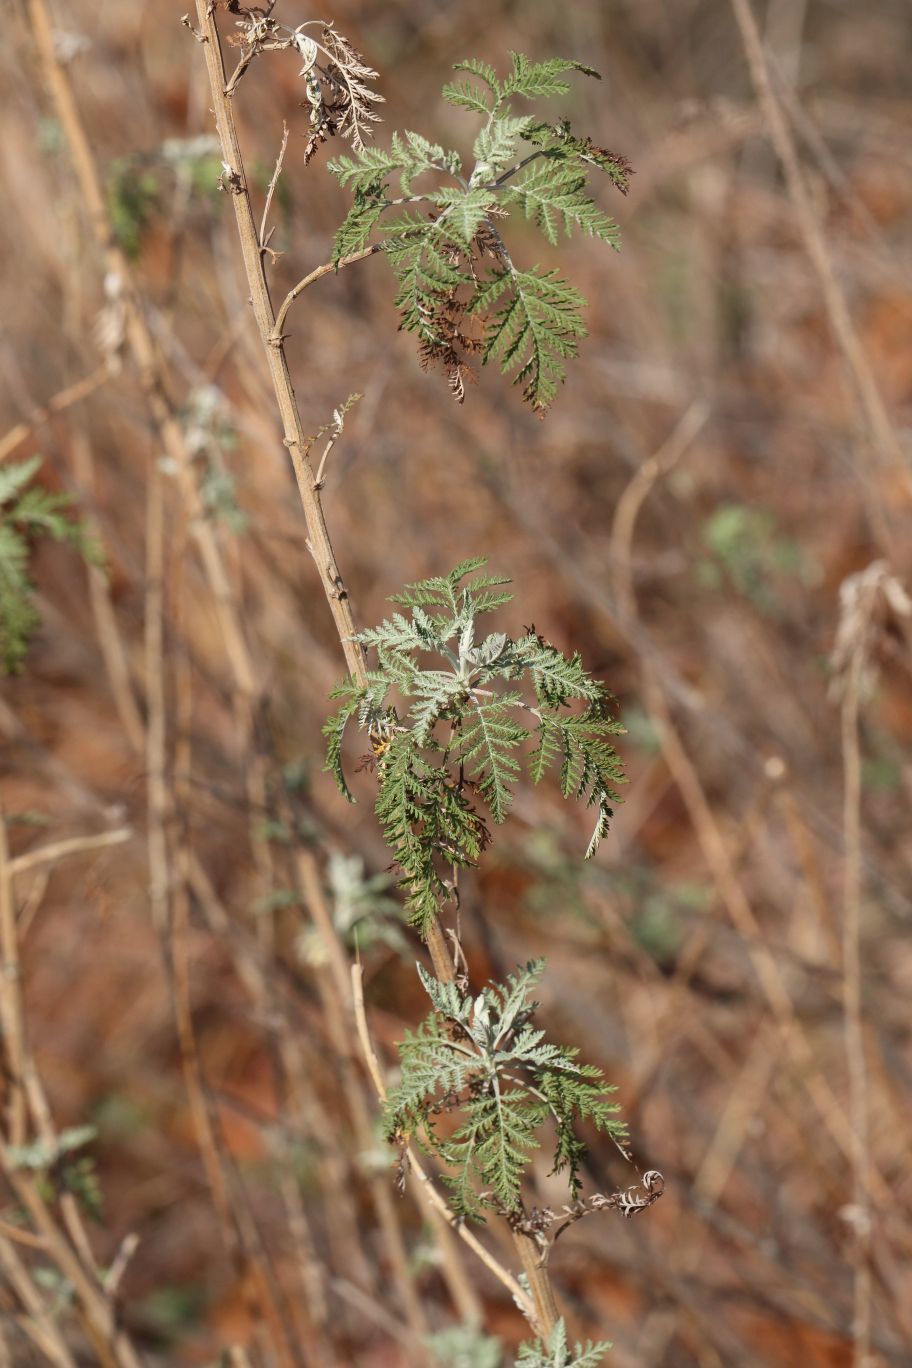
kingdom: Plantae
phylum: Tracheophyta
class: Magnoliopsida
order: Asterales
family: Asteraceae
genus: Artemisia
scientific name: Artemisia afra
